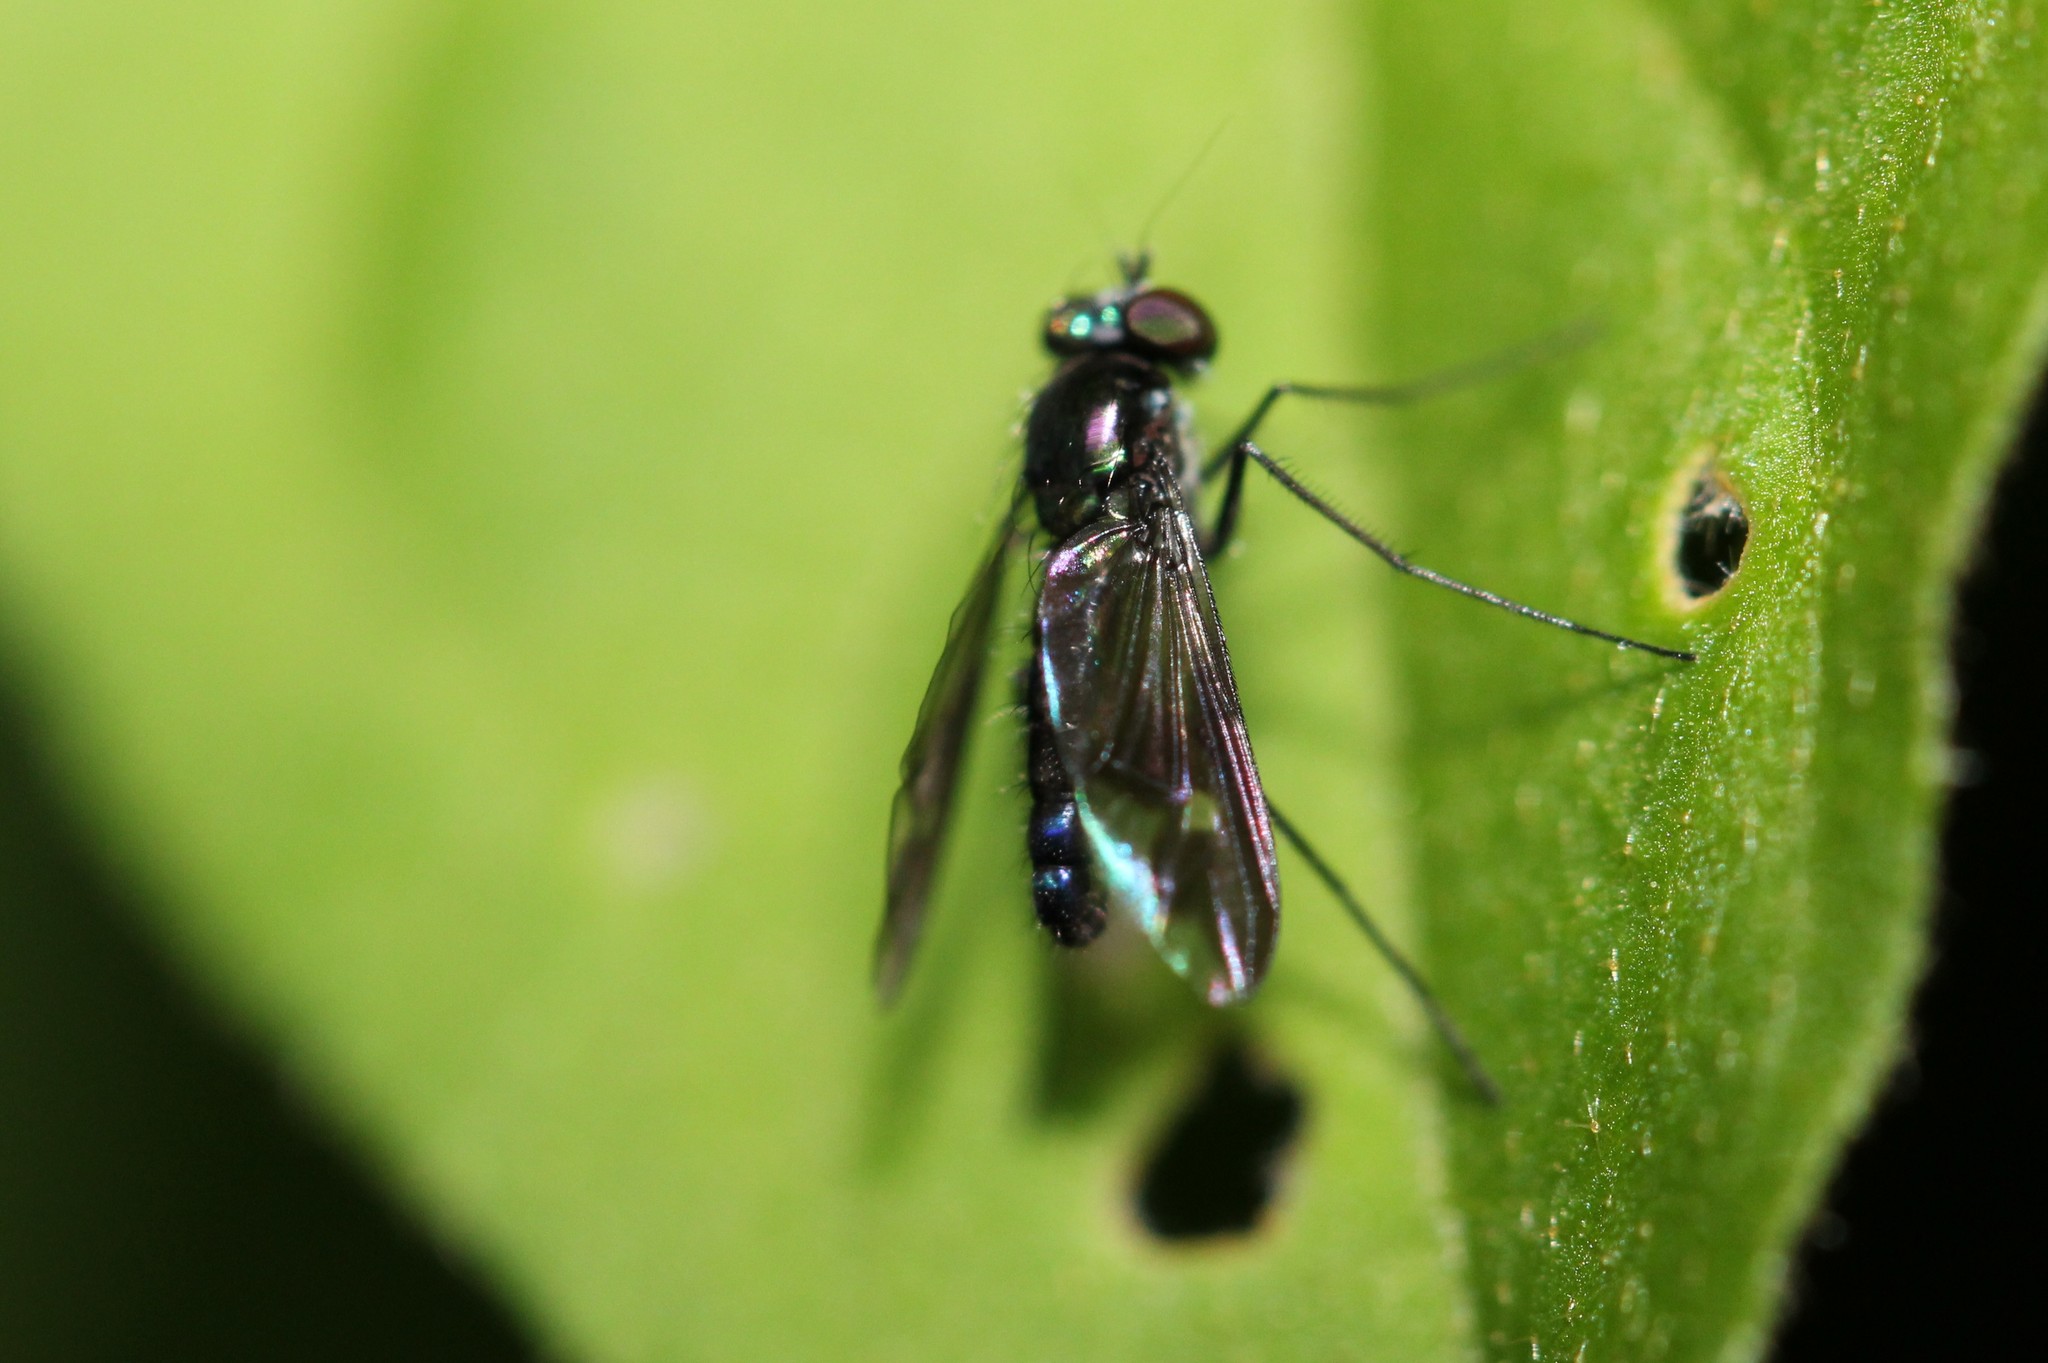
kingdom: Animalia
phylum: Arthropoda
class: Insecta
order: Diptera
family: Dolichopodidae
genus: Condylostylus
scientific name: Condylostylus
